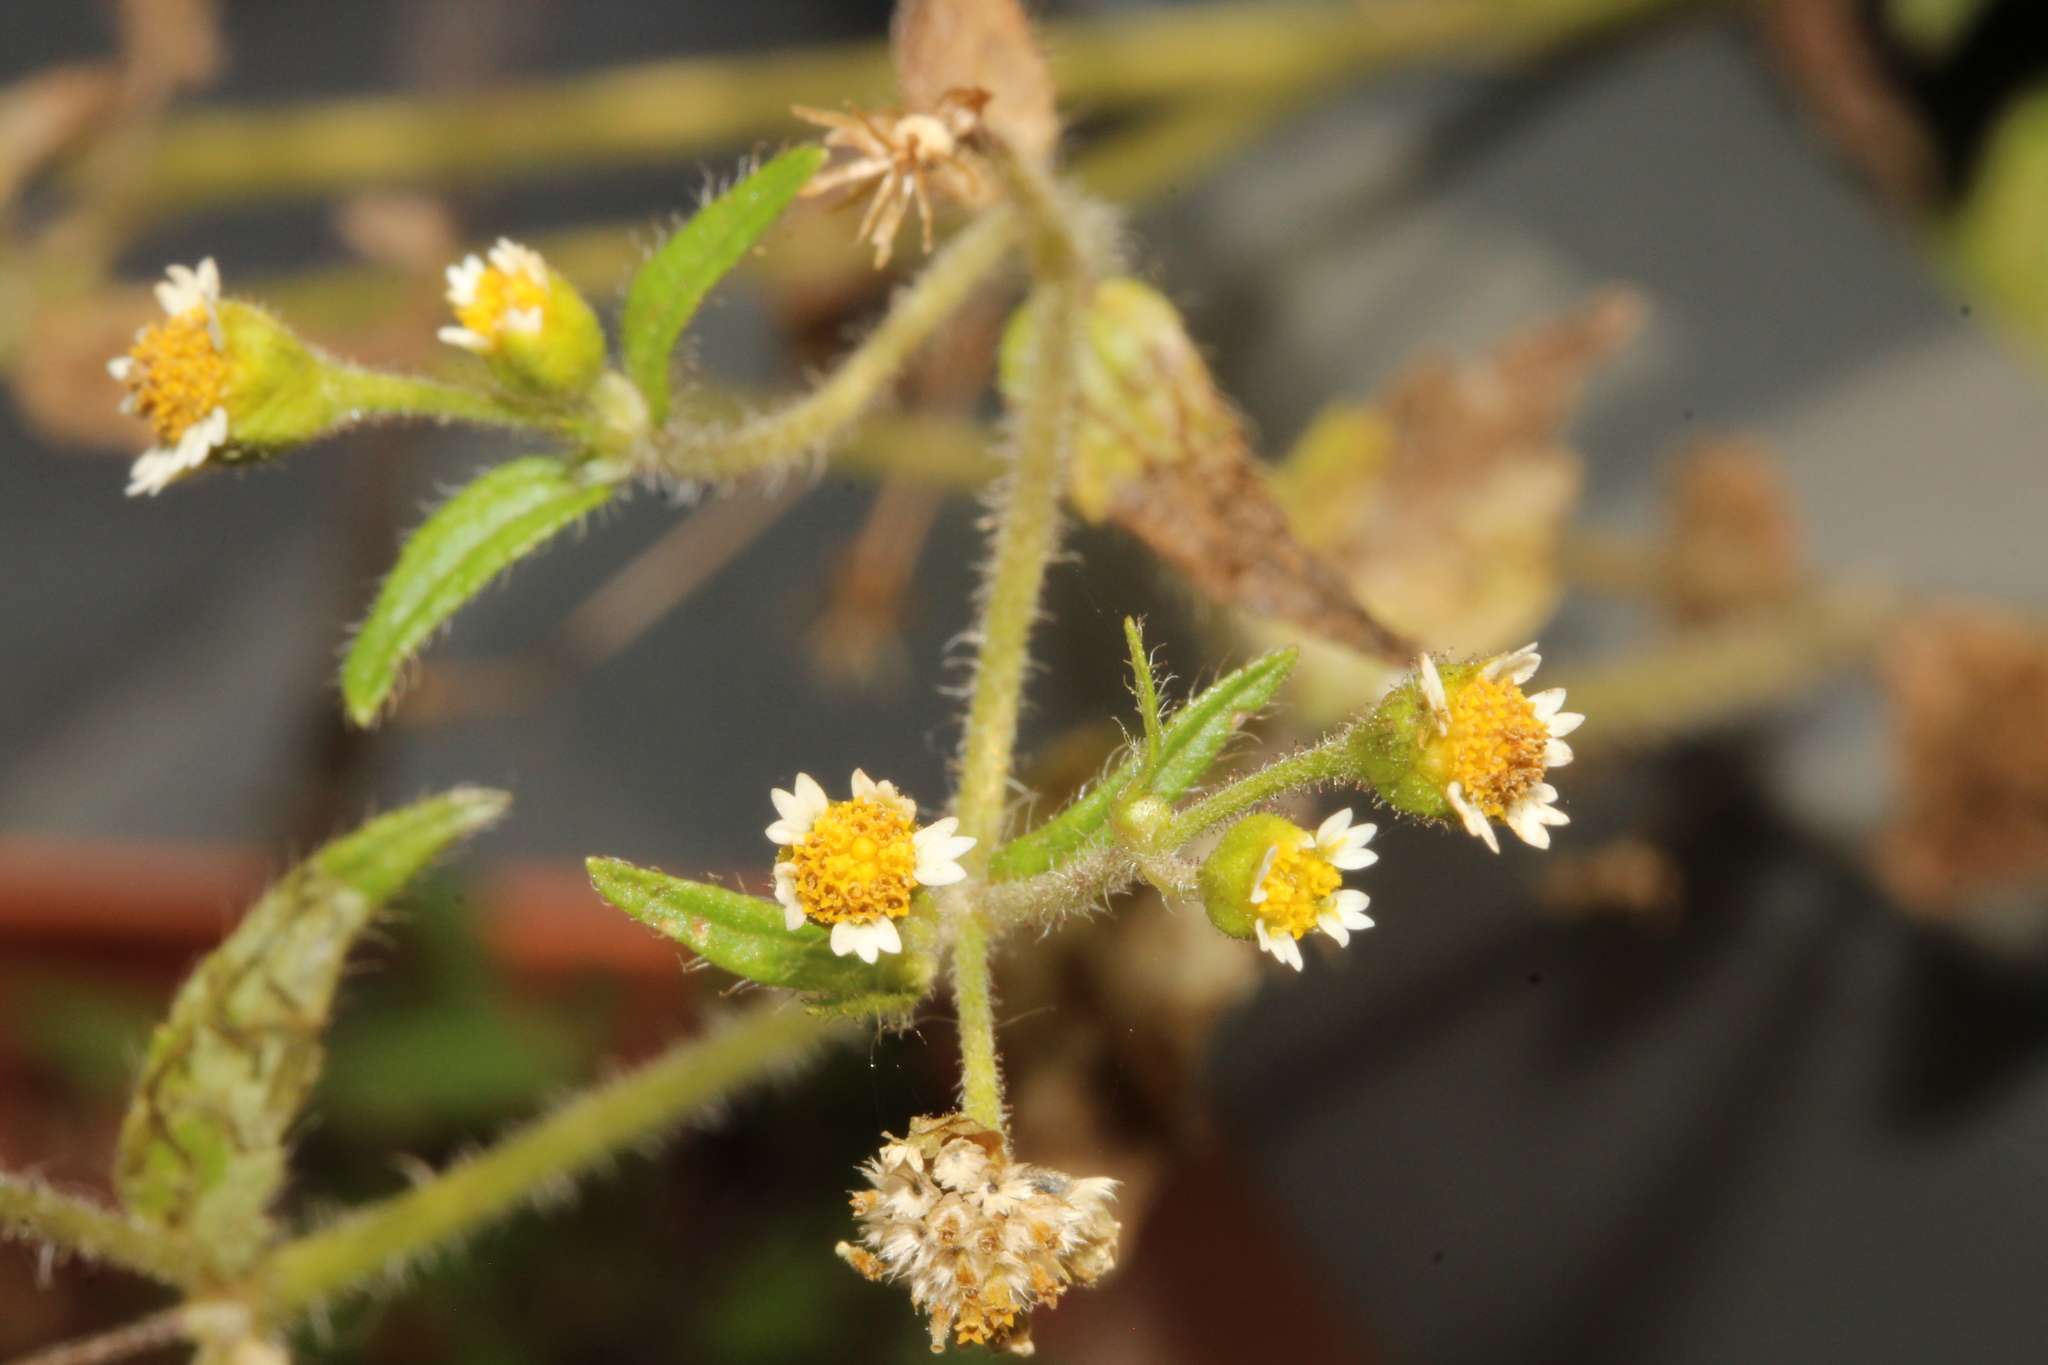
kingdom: Plantae
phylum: Tracheophyta
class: Magnoliopsida
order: Asterales
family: Asteraceae
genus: Galinsoga
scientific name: Galinsoga
